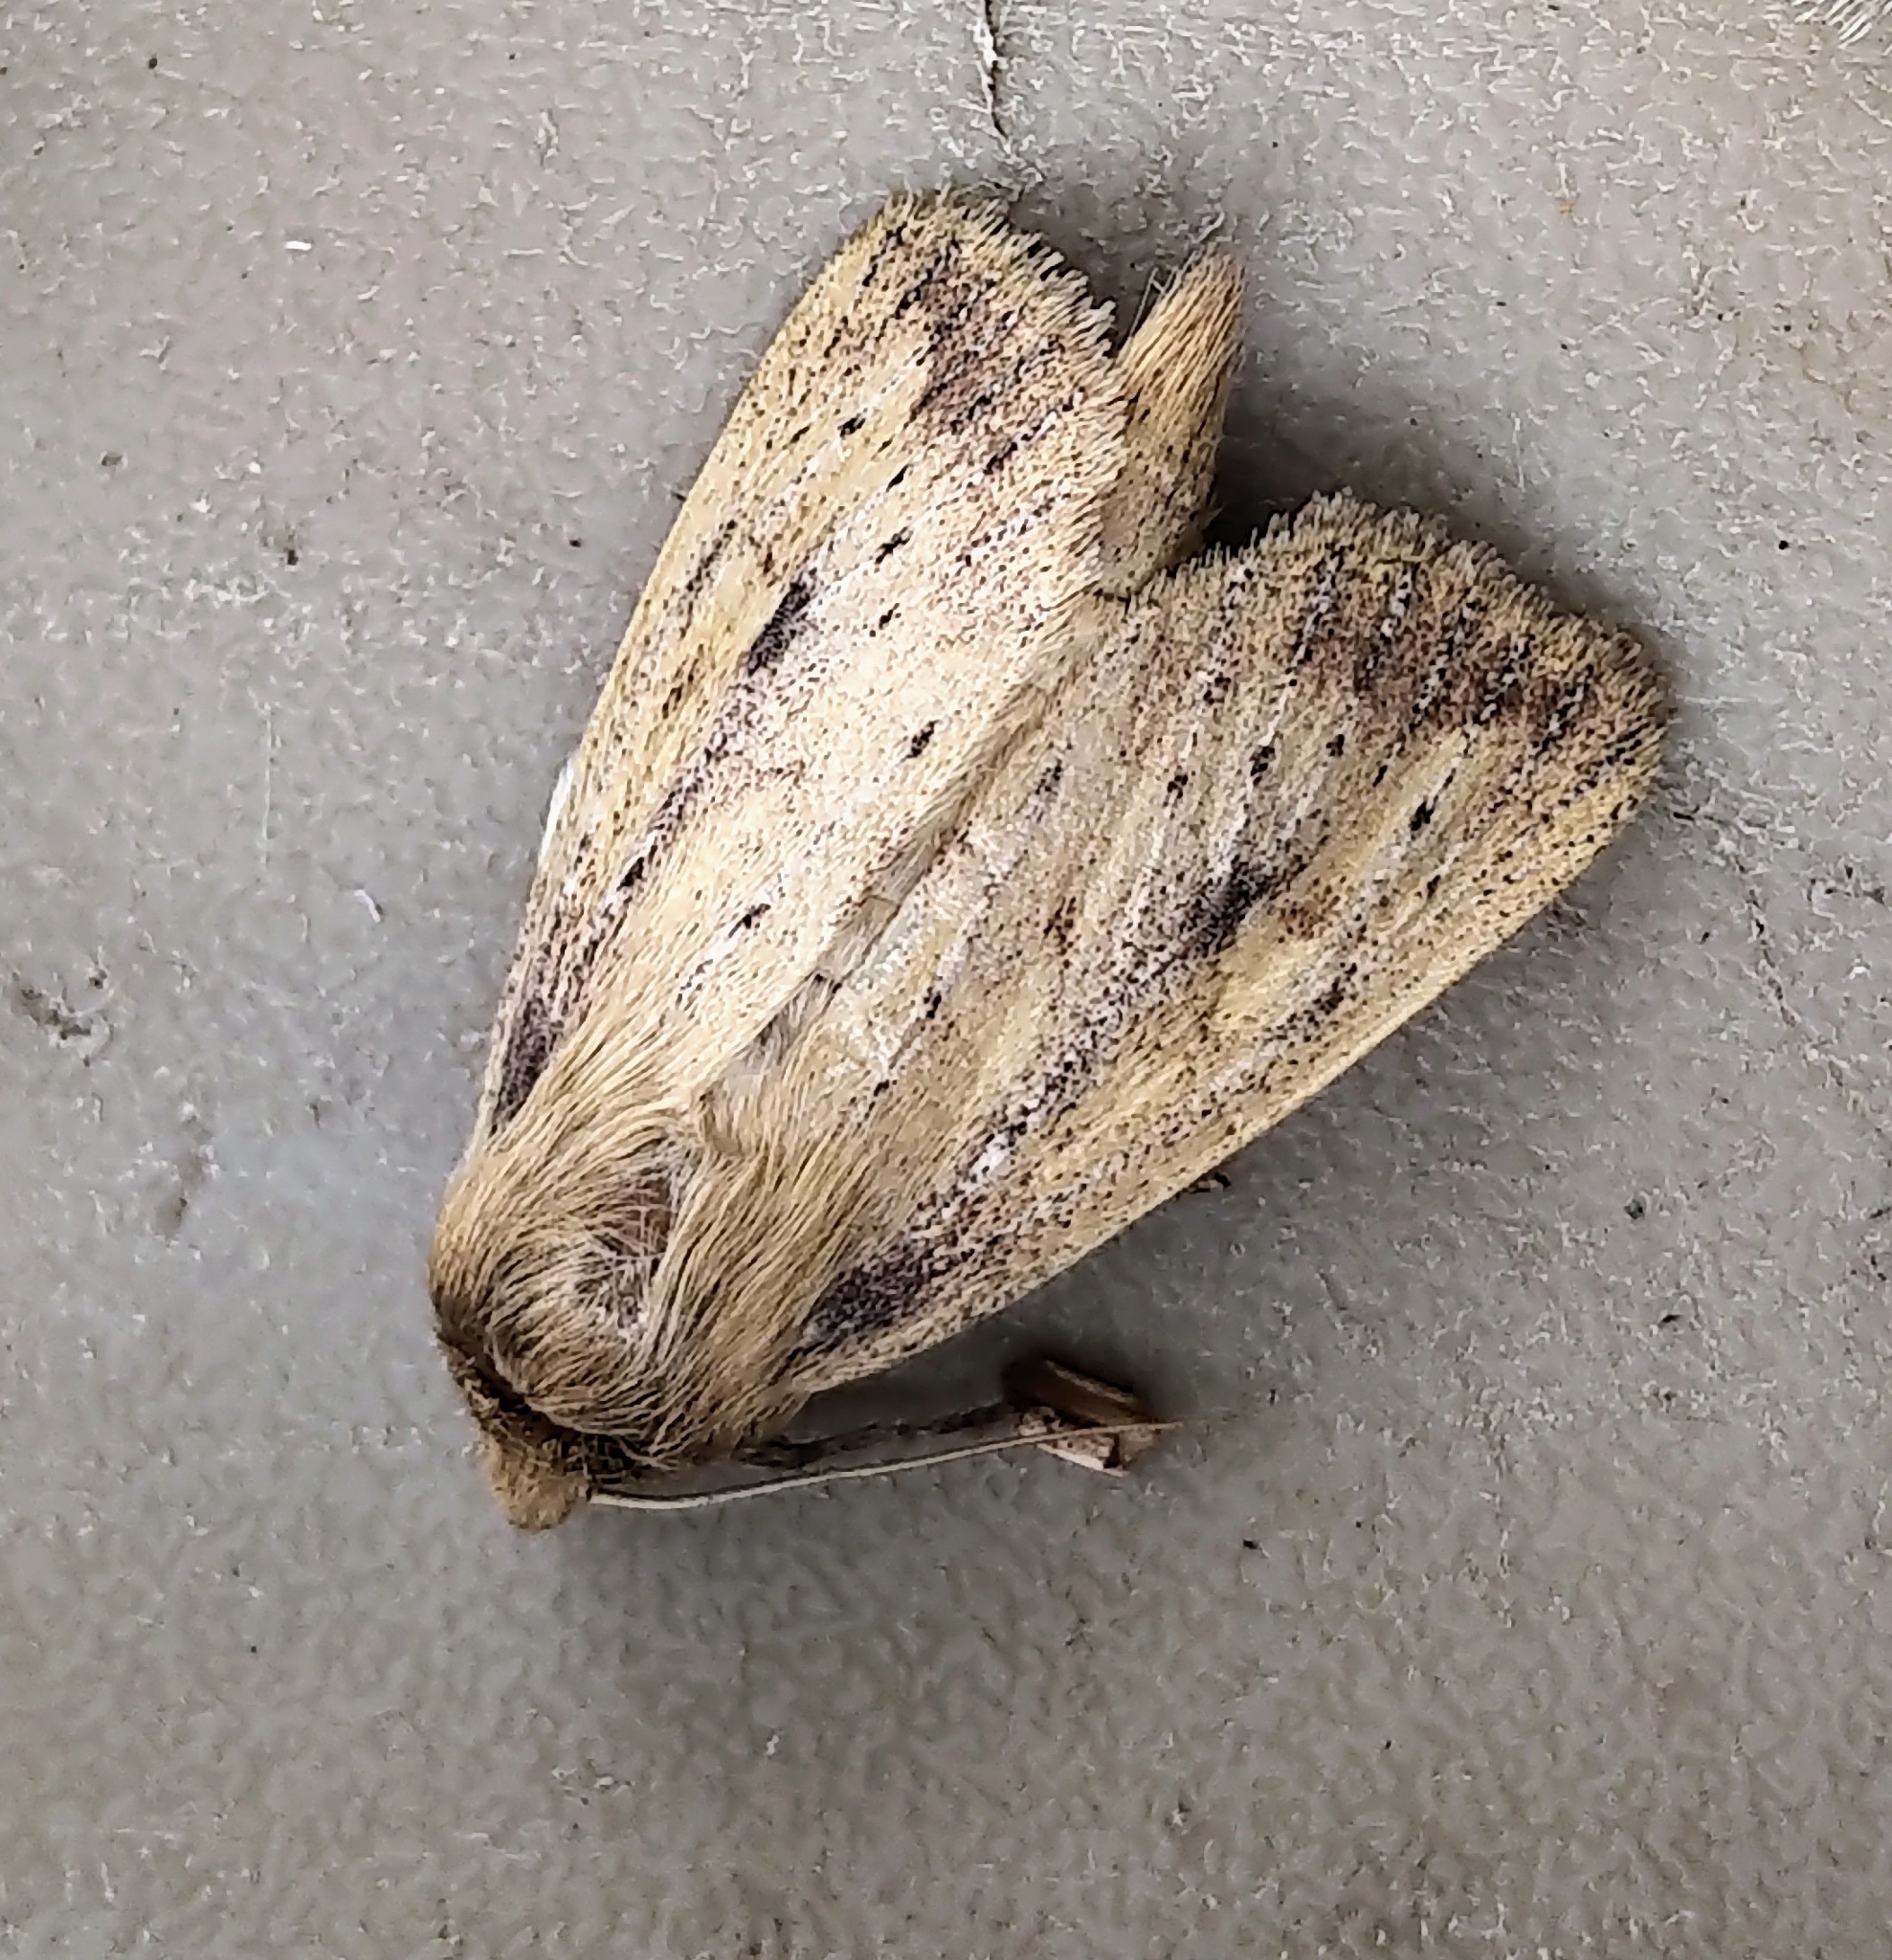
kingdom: Animalia
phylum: Arthropoda
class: Insecta
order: Lepidoptera
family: Noctuidae
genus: Globia
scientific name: Globia subflava
